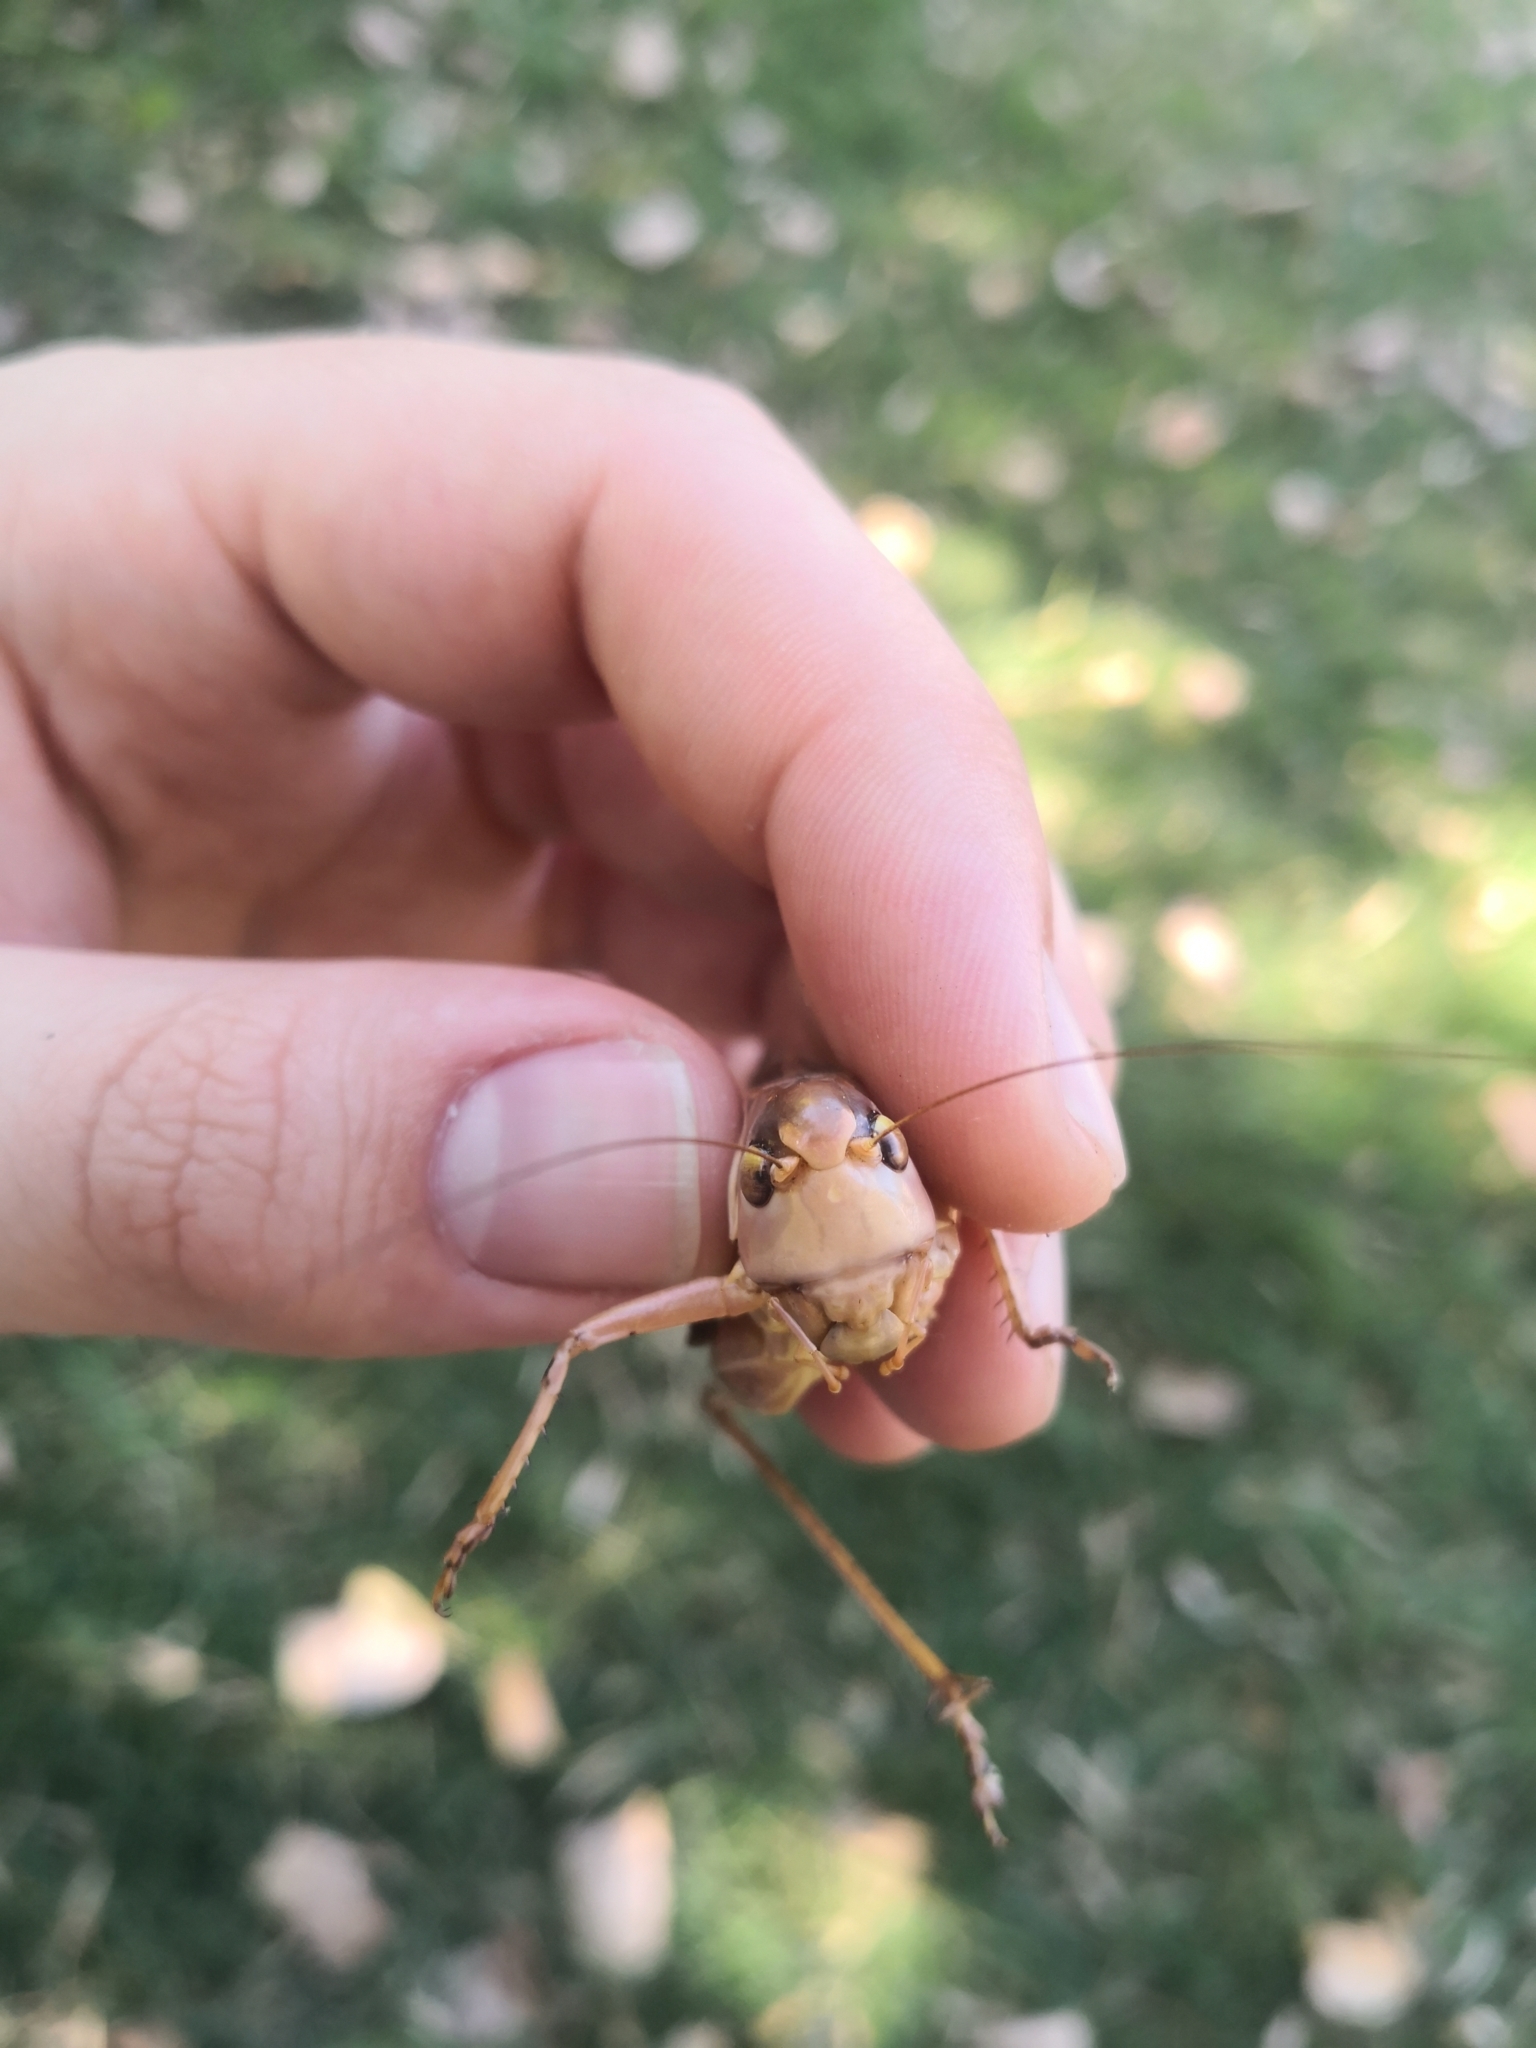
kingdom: Animalia
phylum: Arthropoda
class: Insecta
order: Orthoptera
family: Tettigoniidae
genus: Decticus
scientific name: Decticus albifrons
